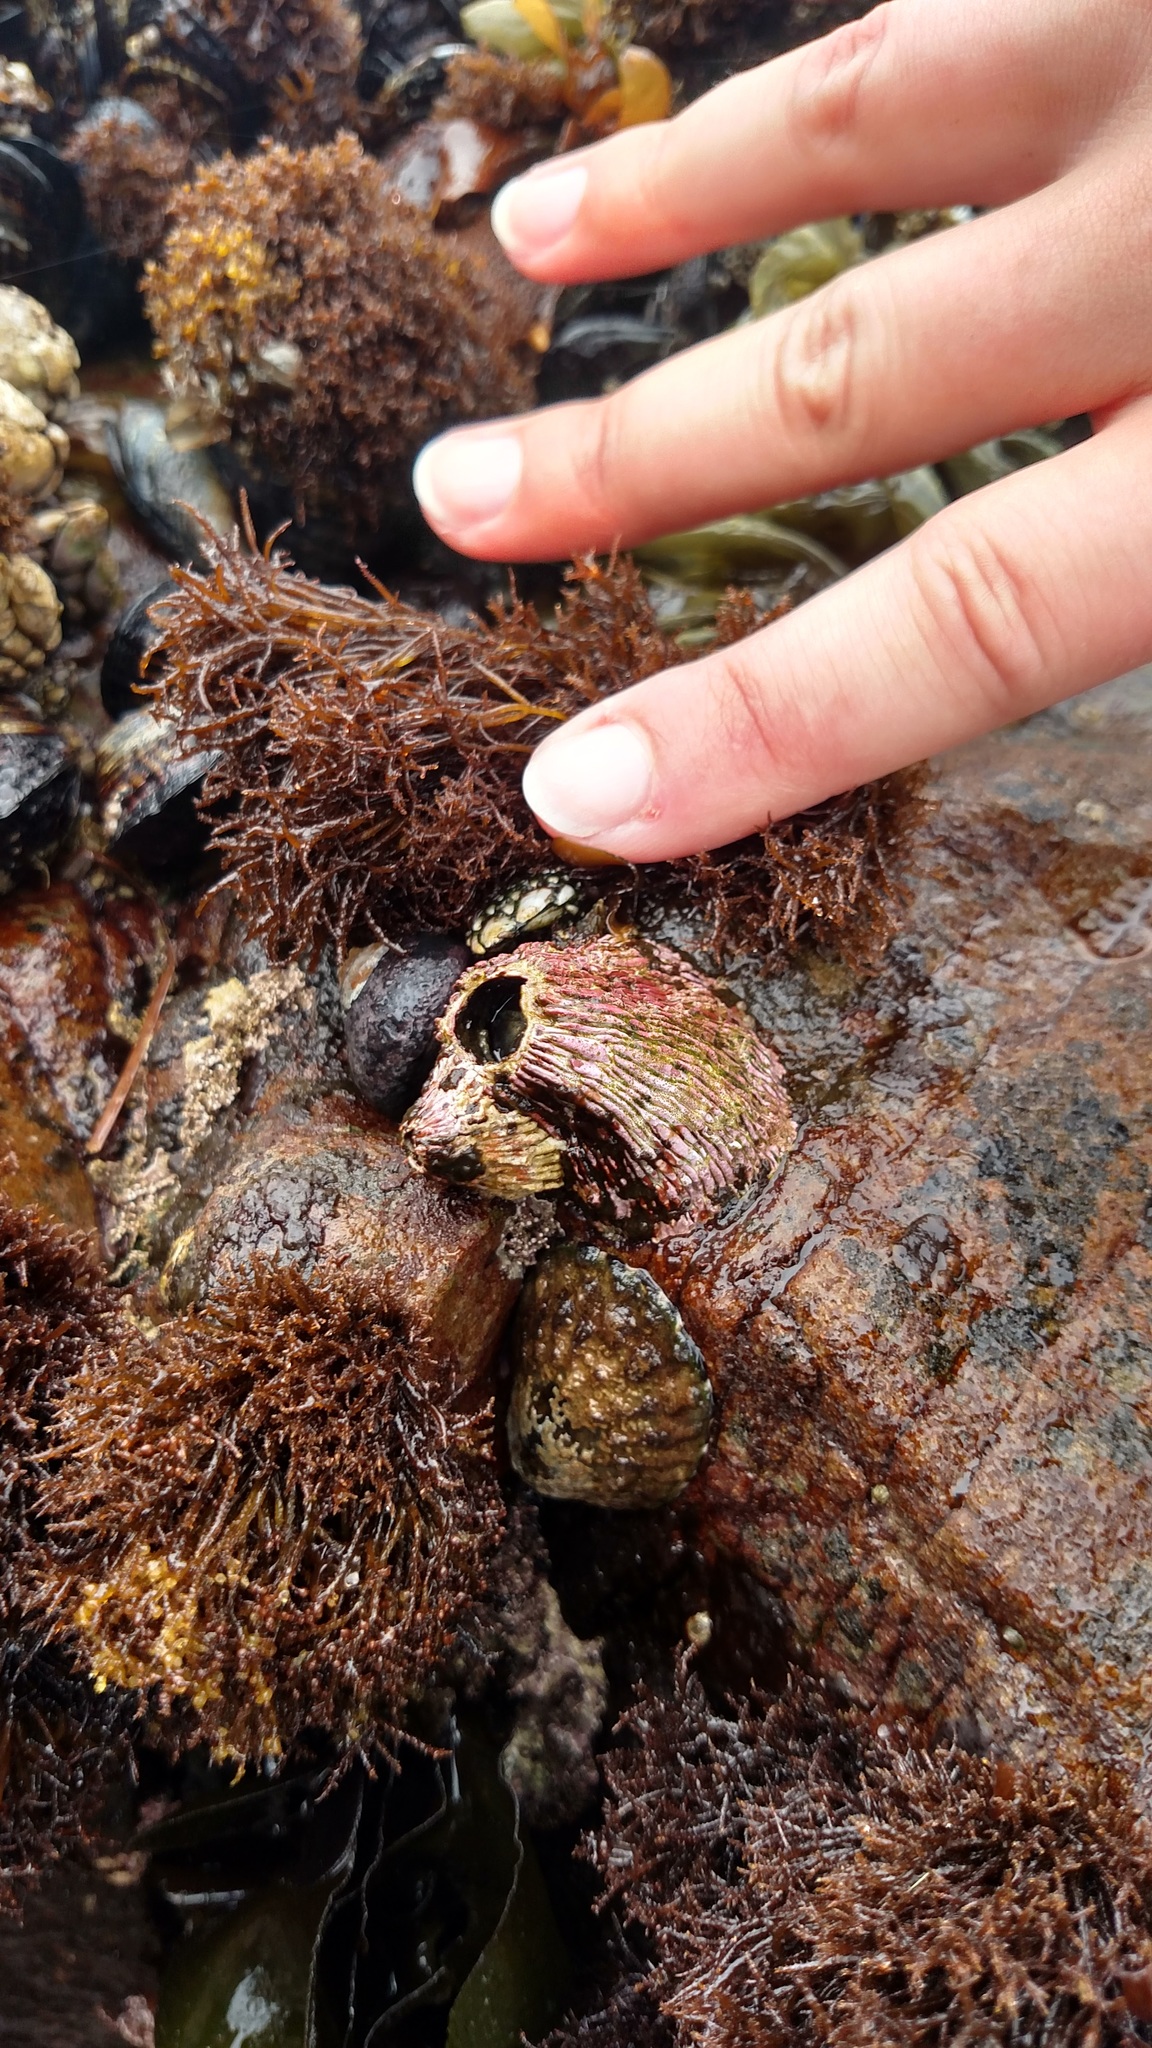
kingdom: Animalia
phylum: Arthropoda
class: Maxillopoda
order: Sessilia
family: Tetraclitidae
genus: Tetraclita
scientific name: Tetraclita rubescens
